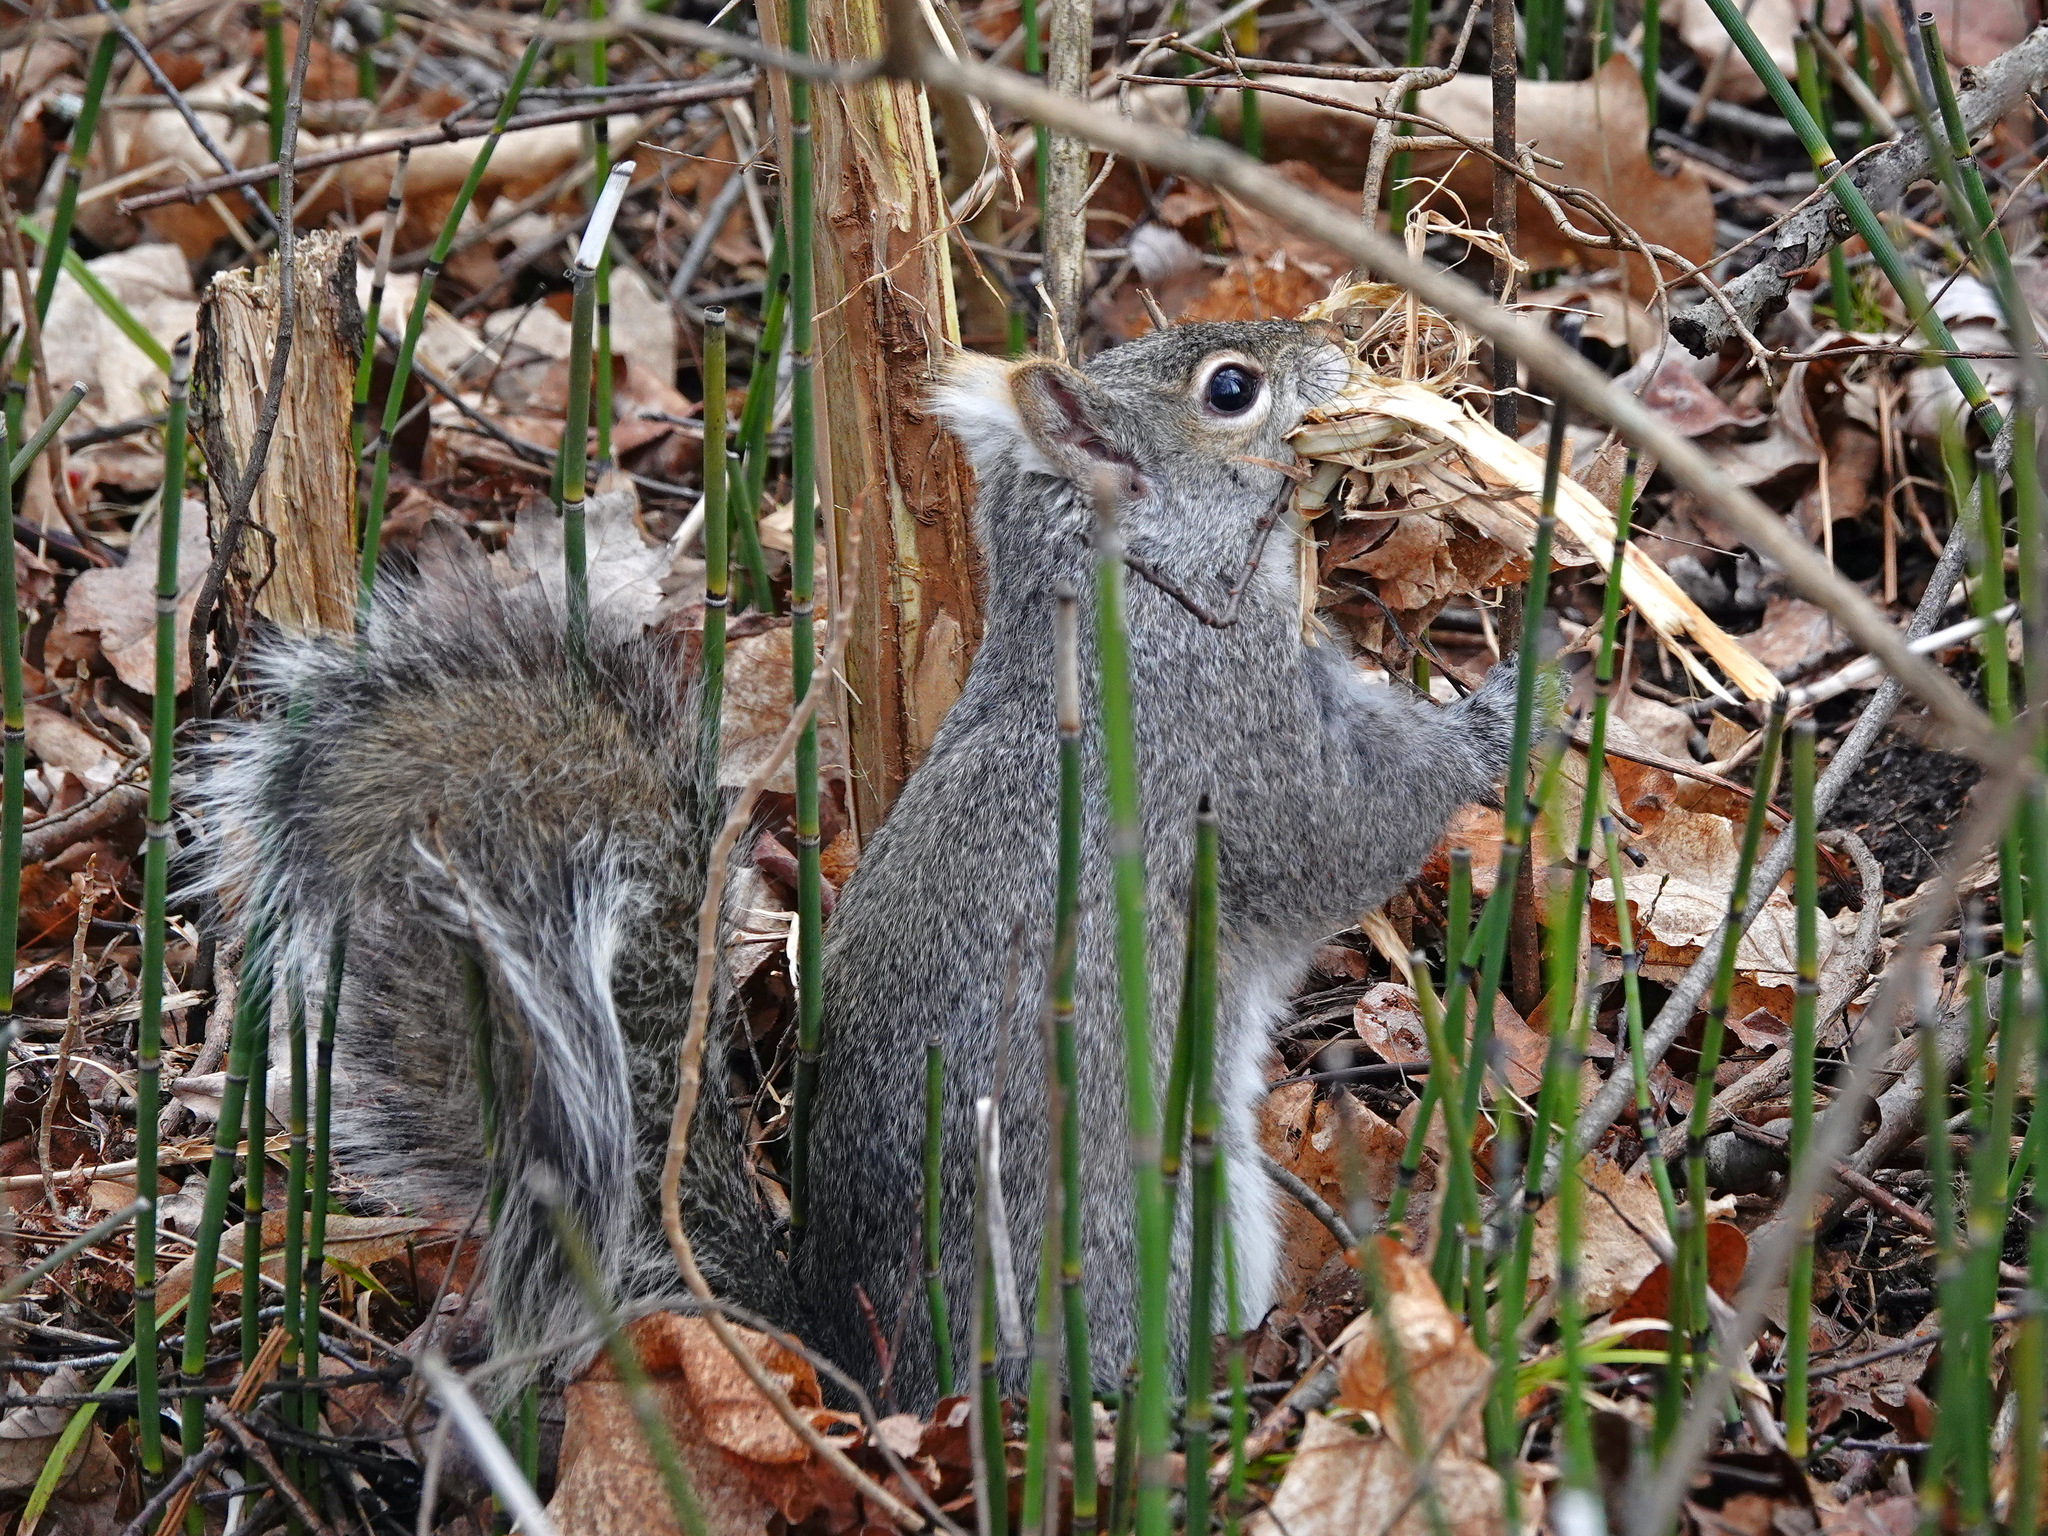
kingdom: Animalia
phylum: Chordata
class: Mammalia
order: Rodentia
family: Sciuridae
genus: Sciurus
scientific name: Sciurus carolinensis
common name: Eastern gray squirrel
